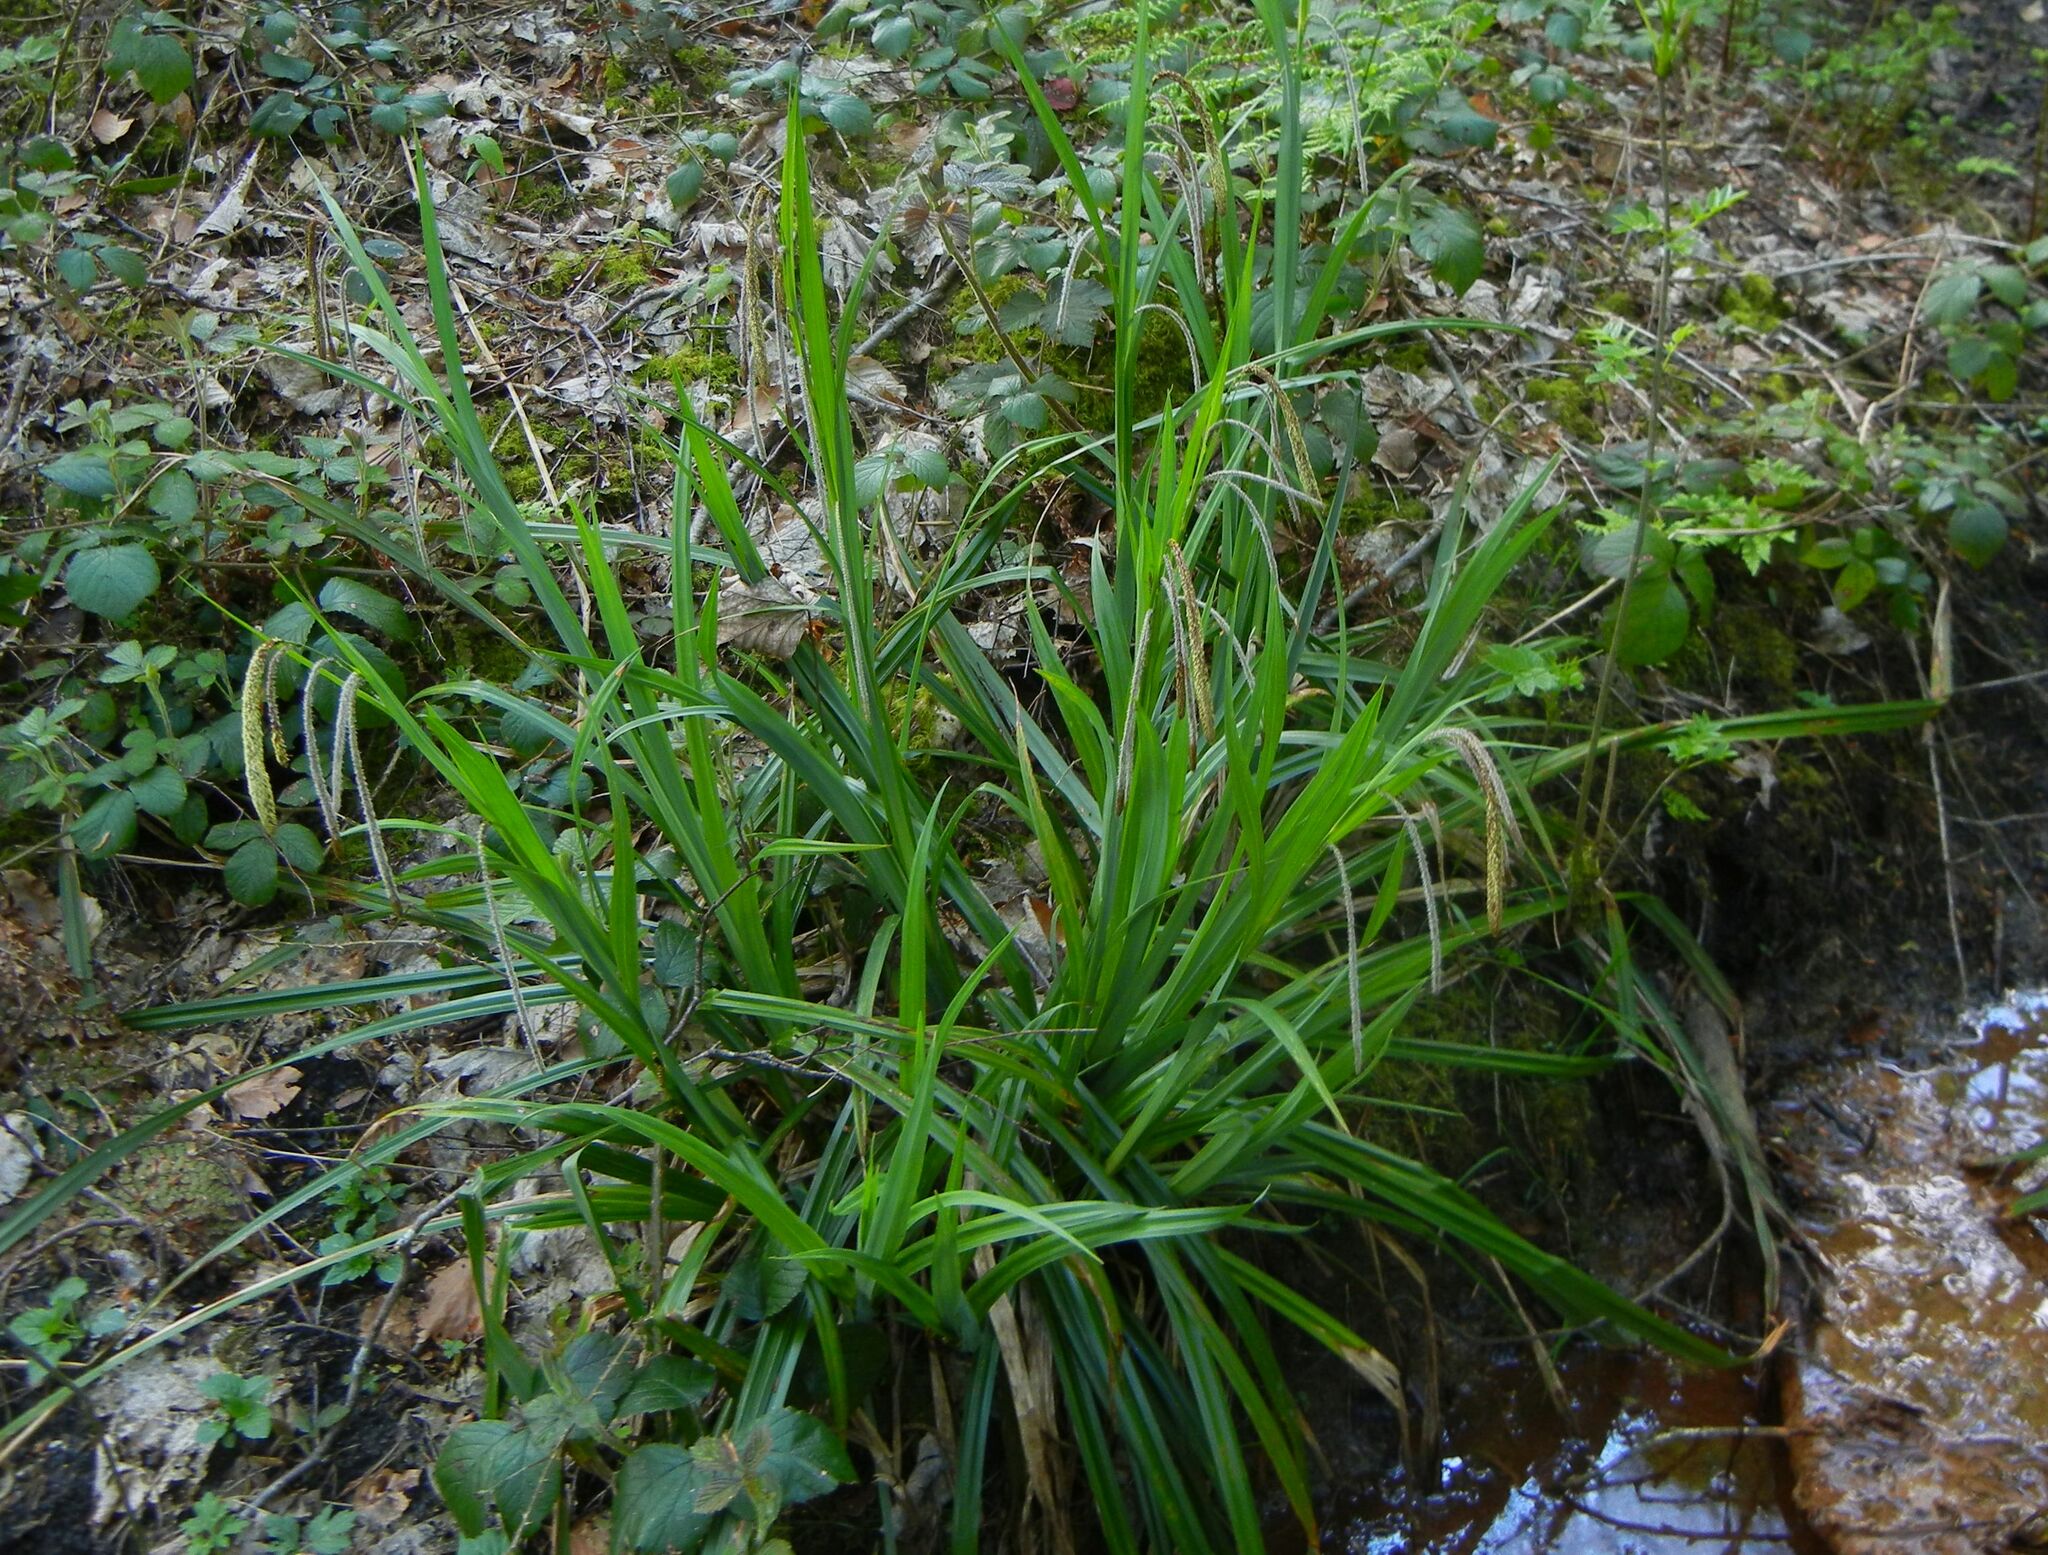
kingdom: Plantae
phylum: Tracheophyta
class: Liliopsida
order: Poales
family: Cyperaceae
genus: Carex
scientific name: Carex pendula
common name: Pendulous sedge
